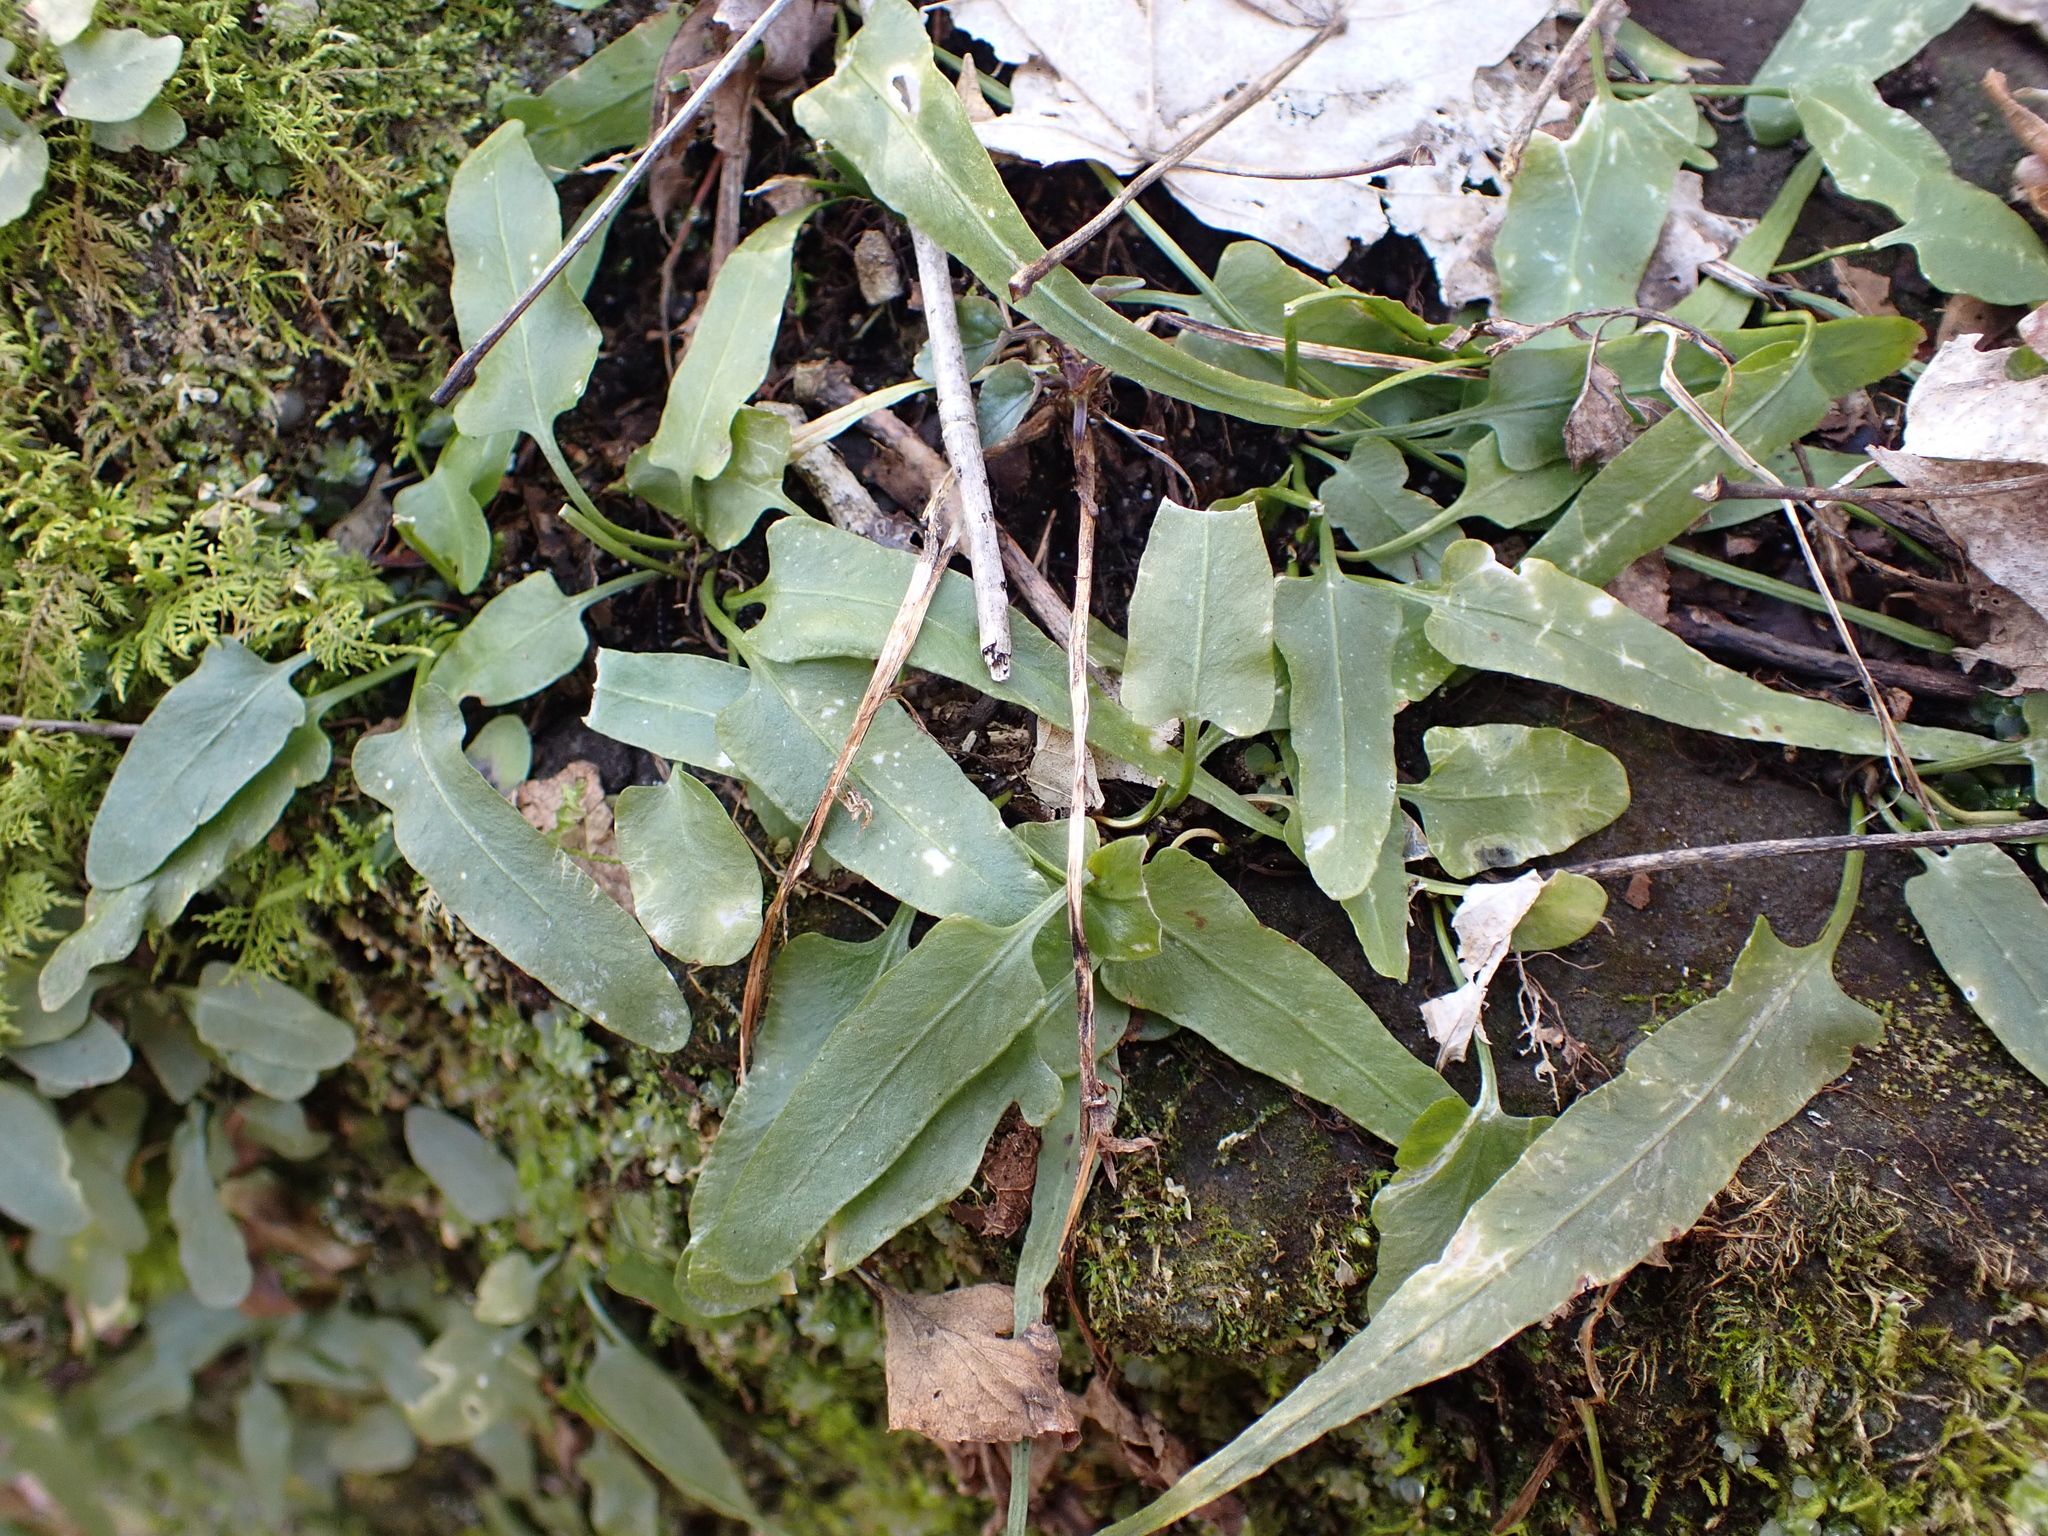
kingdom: Plantae
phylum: Tracheophyta
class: Polypodiopsida
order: Polypodiales
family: Aspleniaceae
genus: Asplenium
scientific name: Asplenium rhizophyllum
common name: Walking fern
